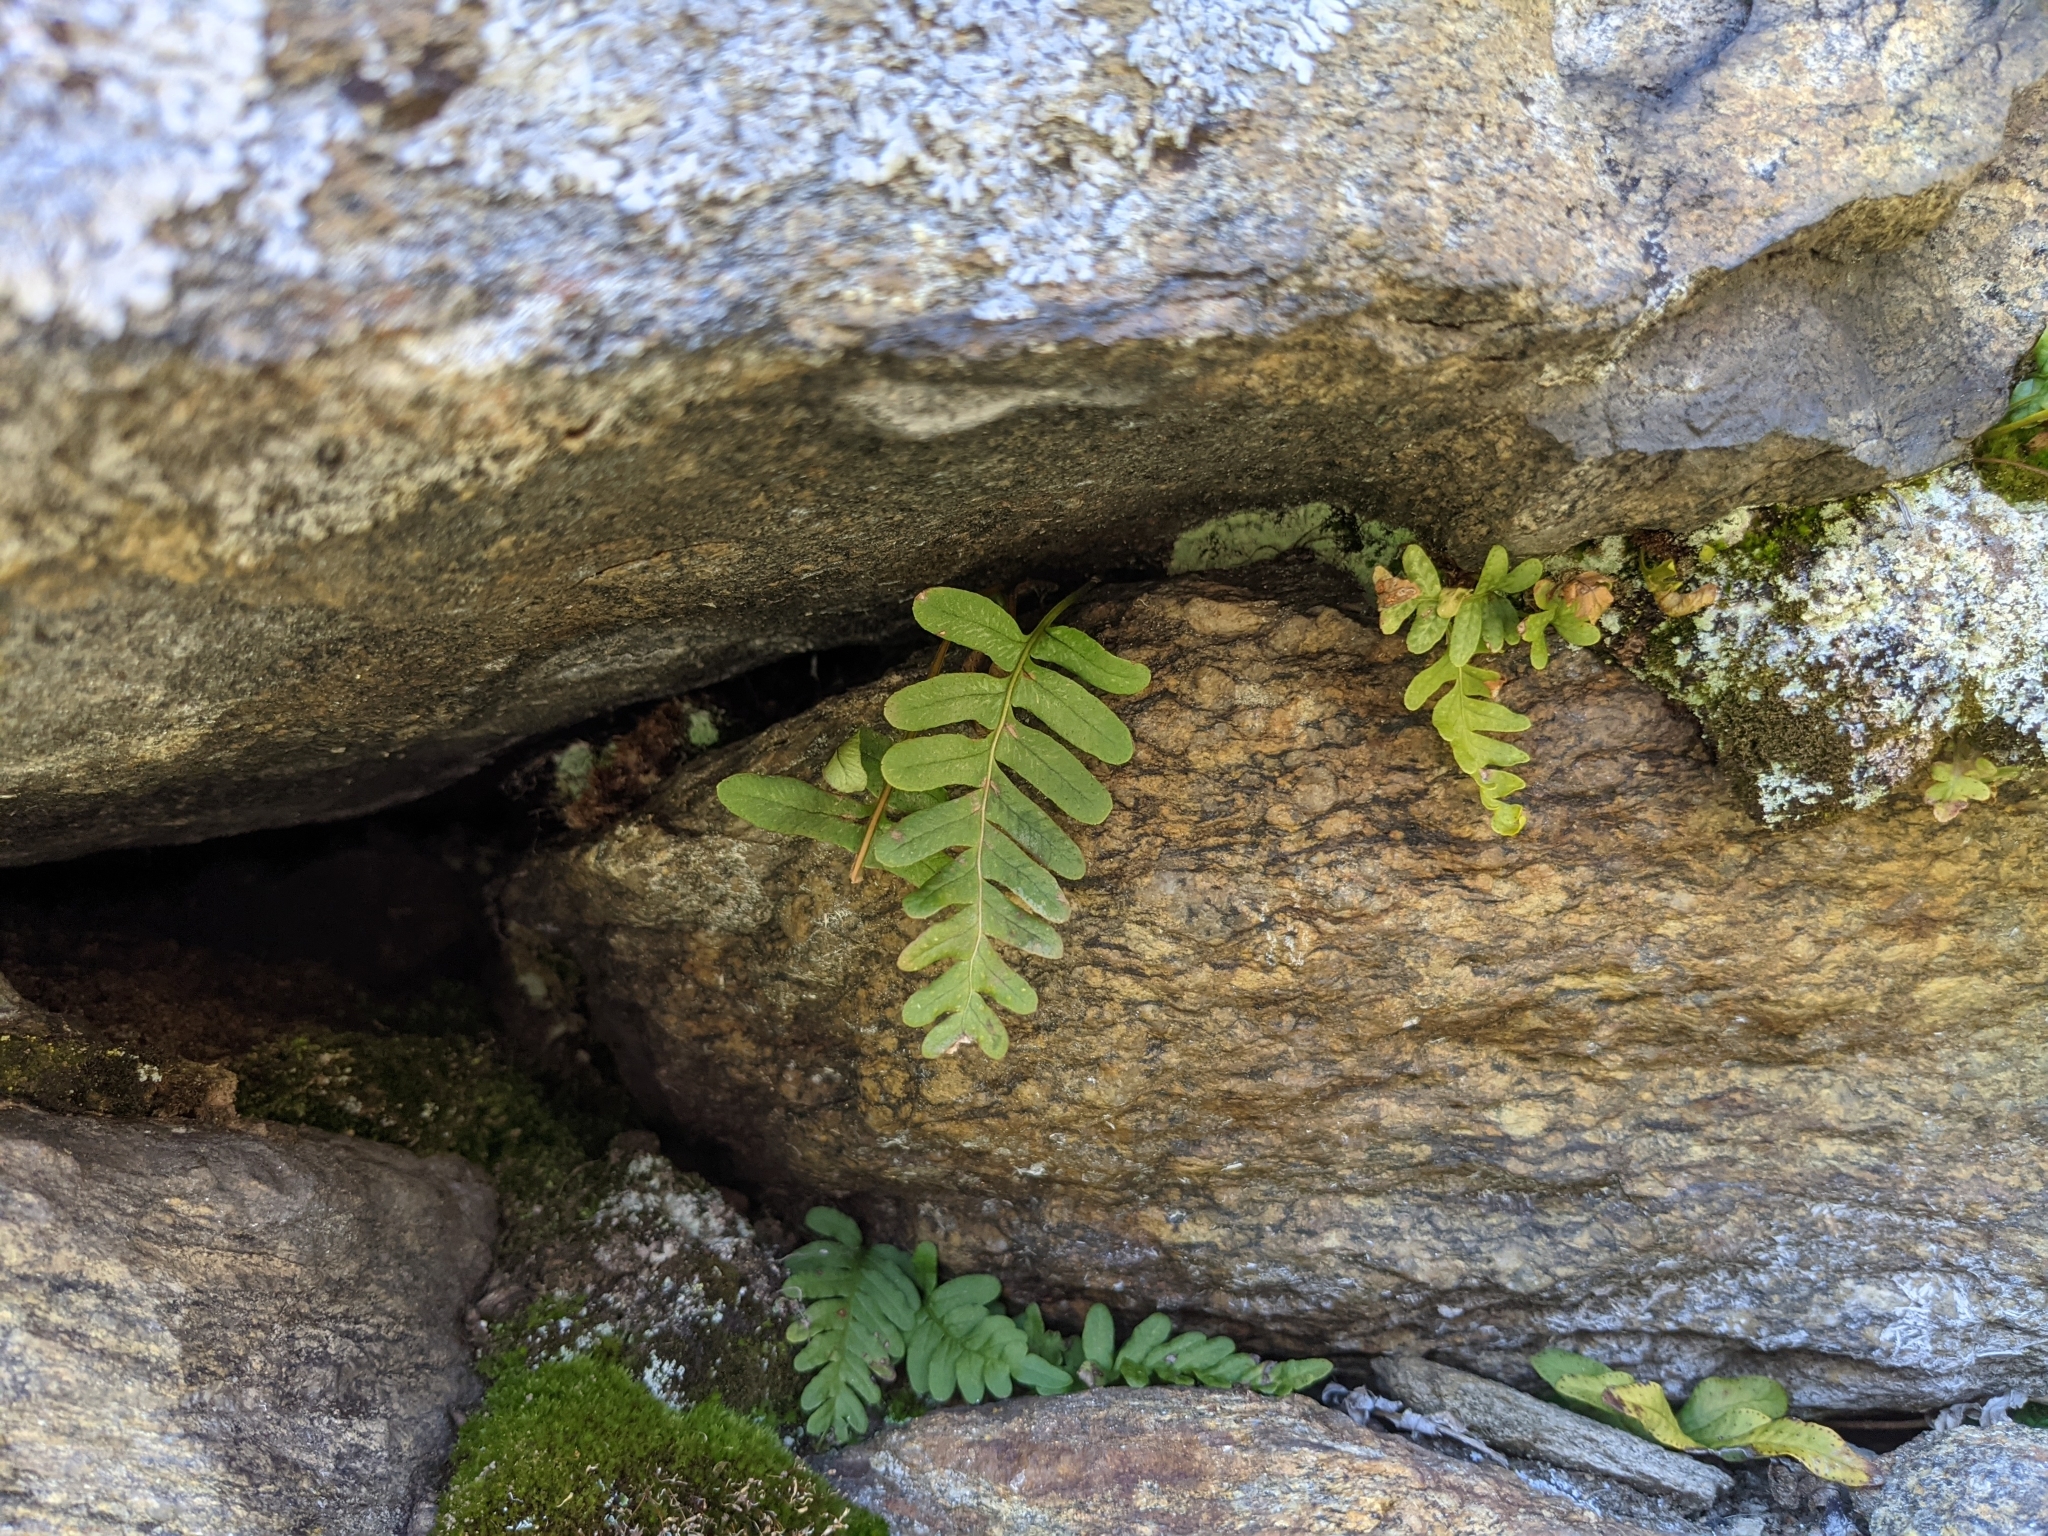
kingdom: Plantae
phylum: Tracheophyta
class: Polypodiopsida
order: Polypodiales
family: Polypodiaceae
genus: Polypodium
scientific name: Polypodium vulgare
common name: Common polypody
